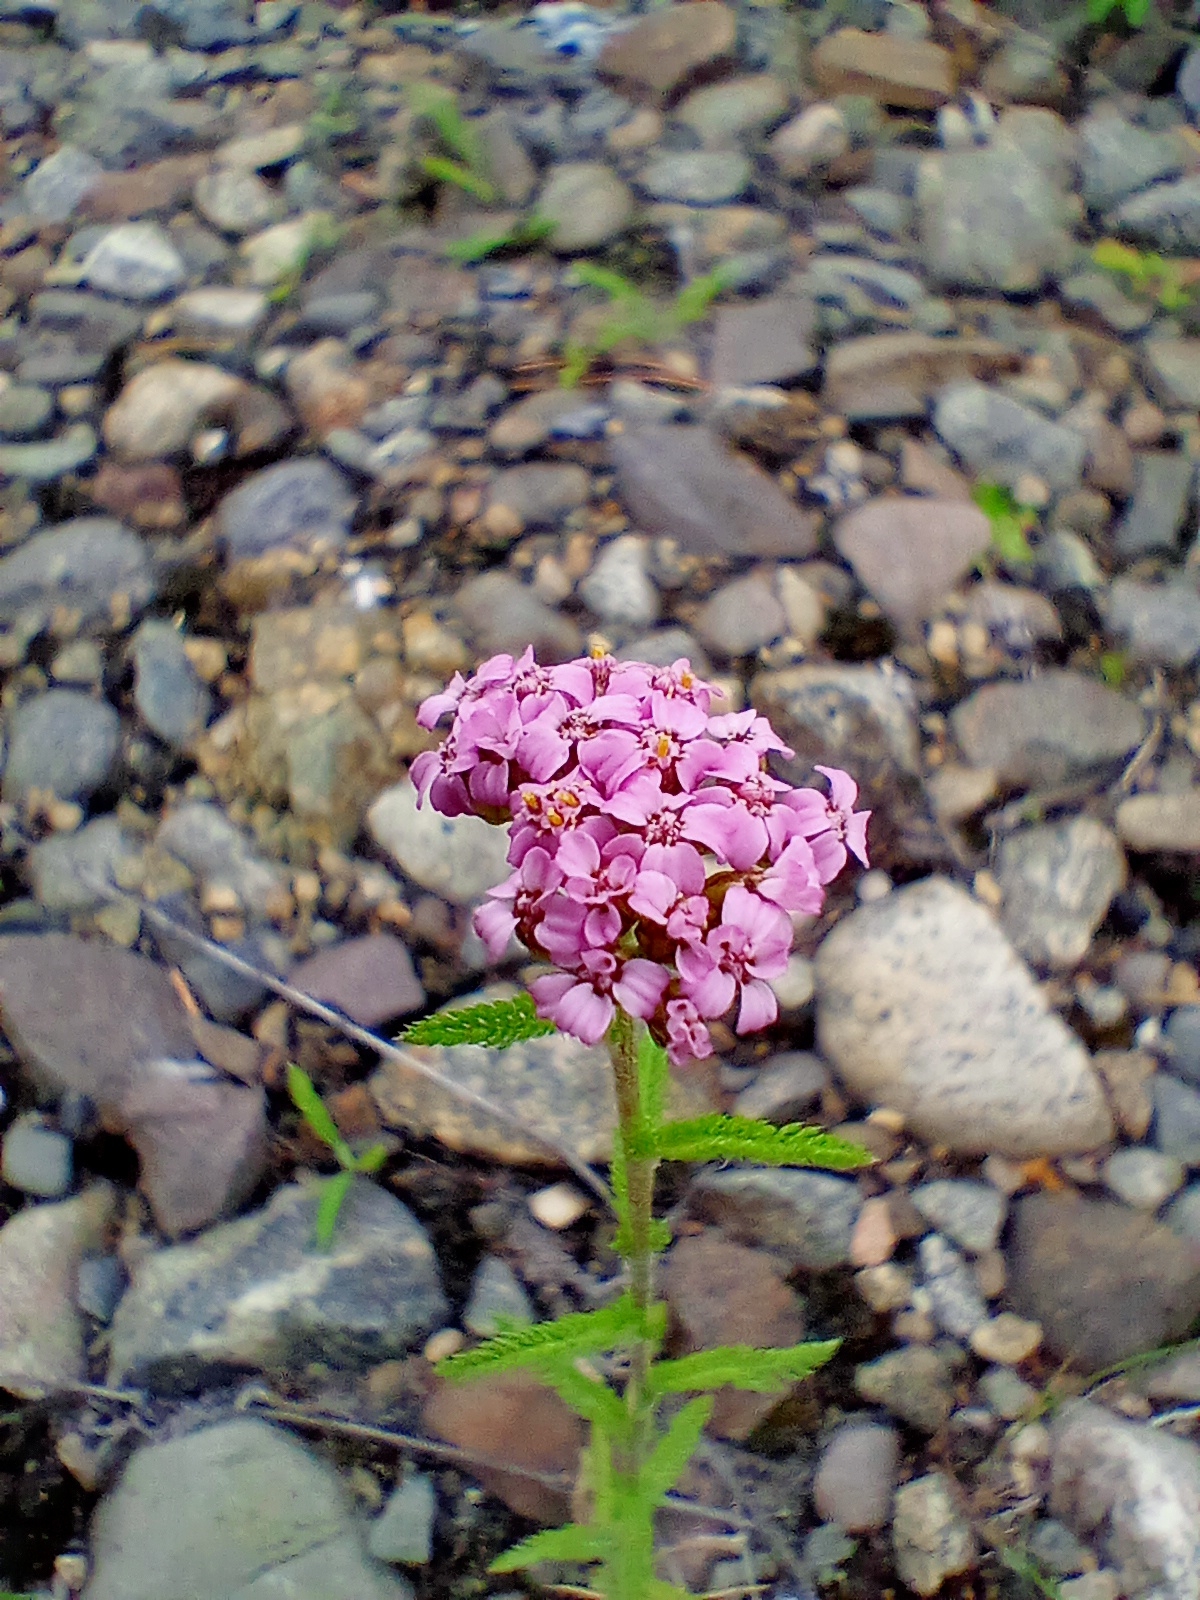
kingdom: Plantae
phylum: Tracheophyta
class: Magnoliopsida
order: Asterales
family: Asteraceae
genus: Achillea
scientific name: Achillea asiatica
